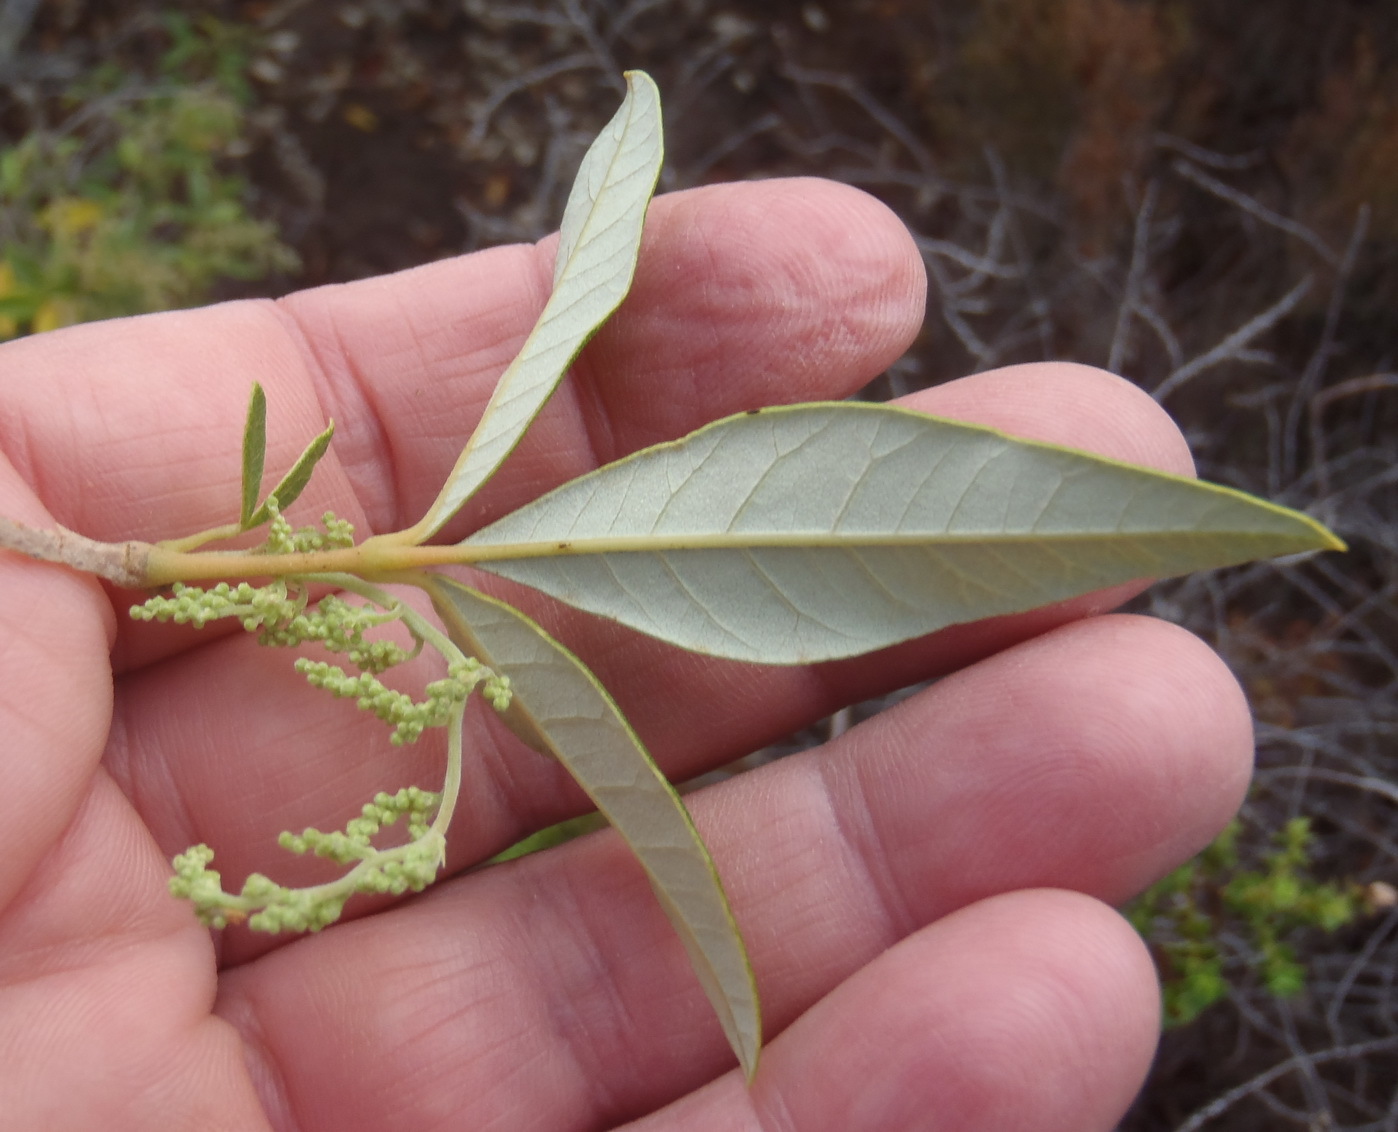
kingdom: Plantae
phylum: Tracheophyta
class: Magnoliopsida
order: Sapindales
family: Anacardiaceae
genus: Searsia
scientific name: Searsia tomentosa
